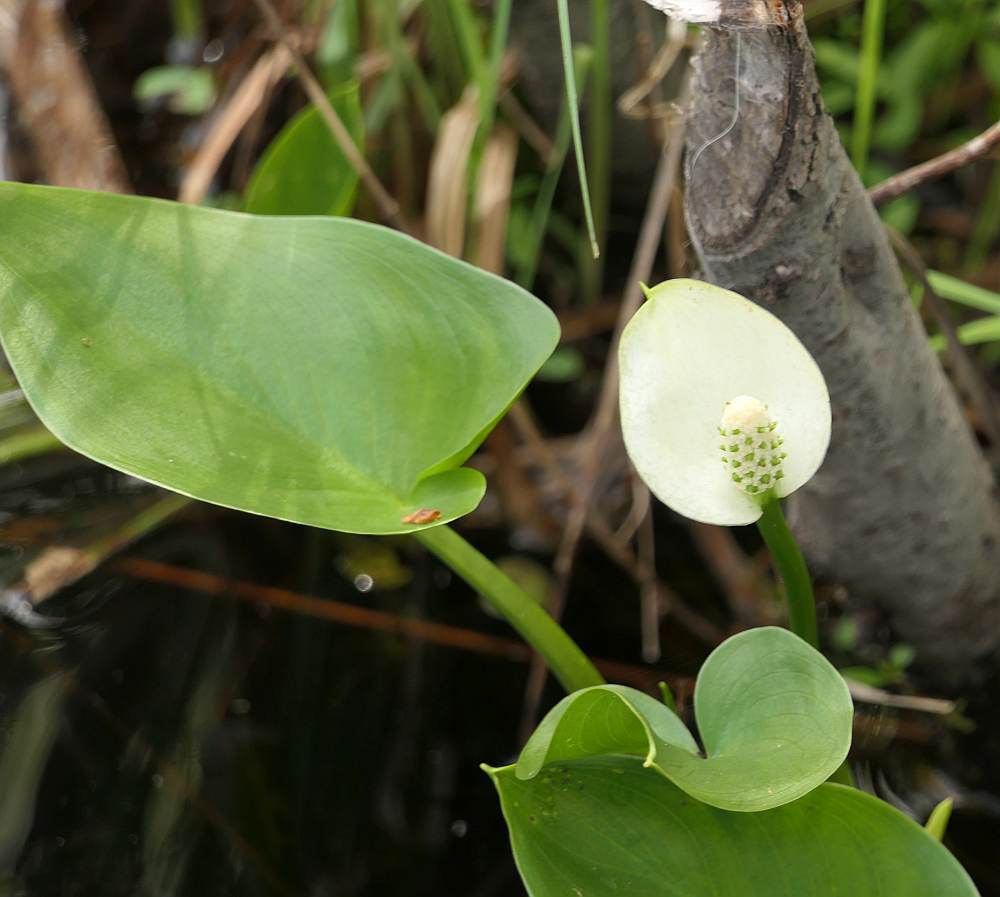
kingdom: Plantae
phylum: Tracheophyta
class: Liliopsida
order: Alismatales
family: Araceae
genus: Calla
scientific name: Calla palustris
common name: Bog arum
